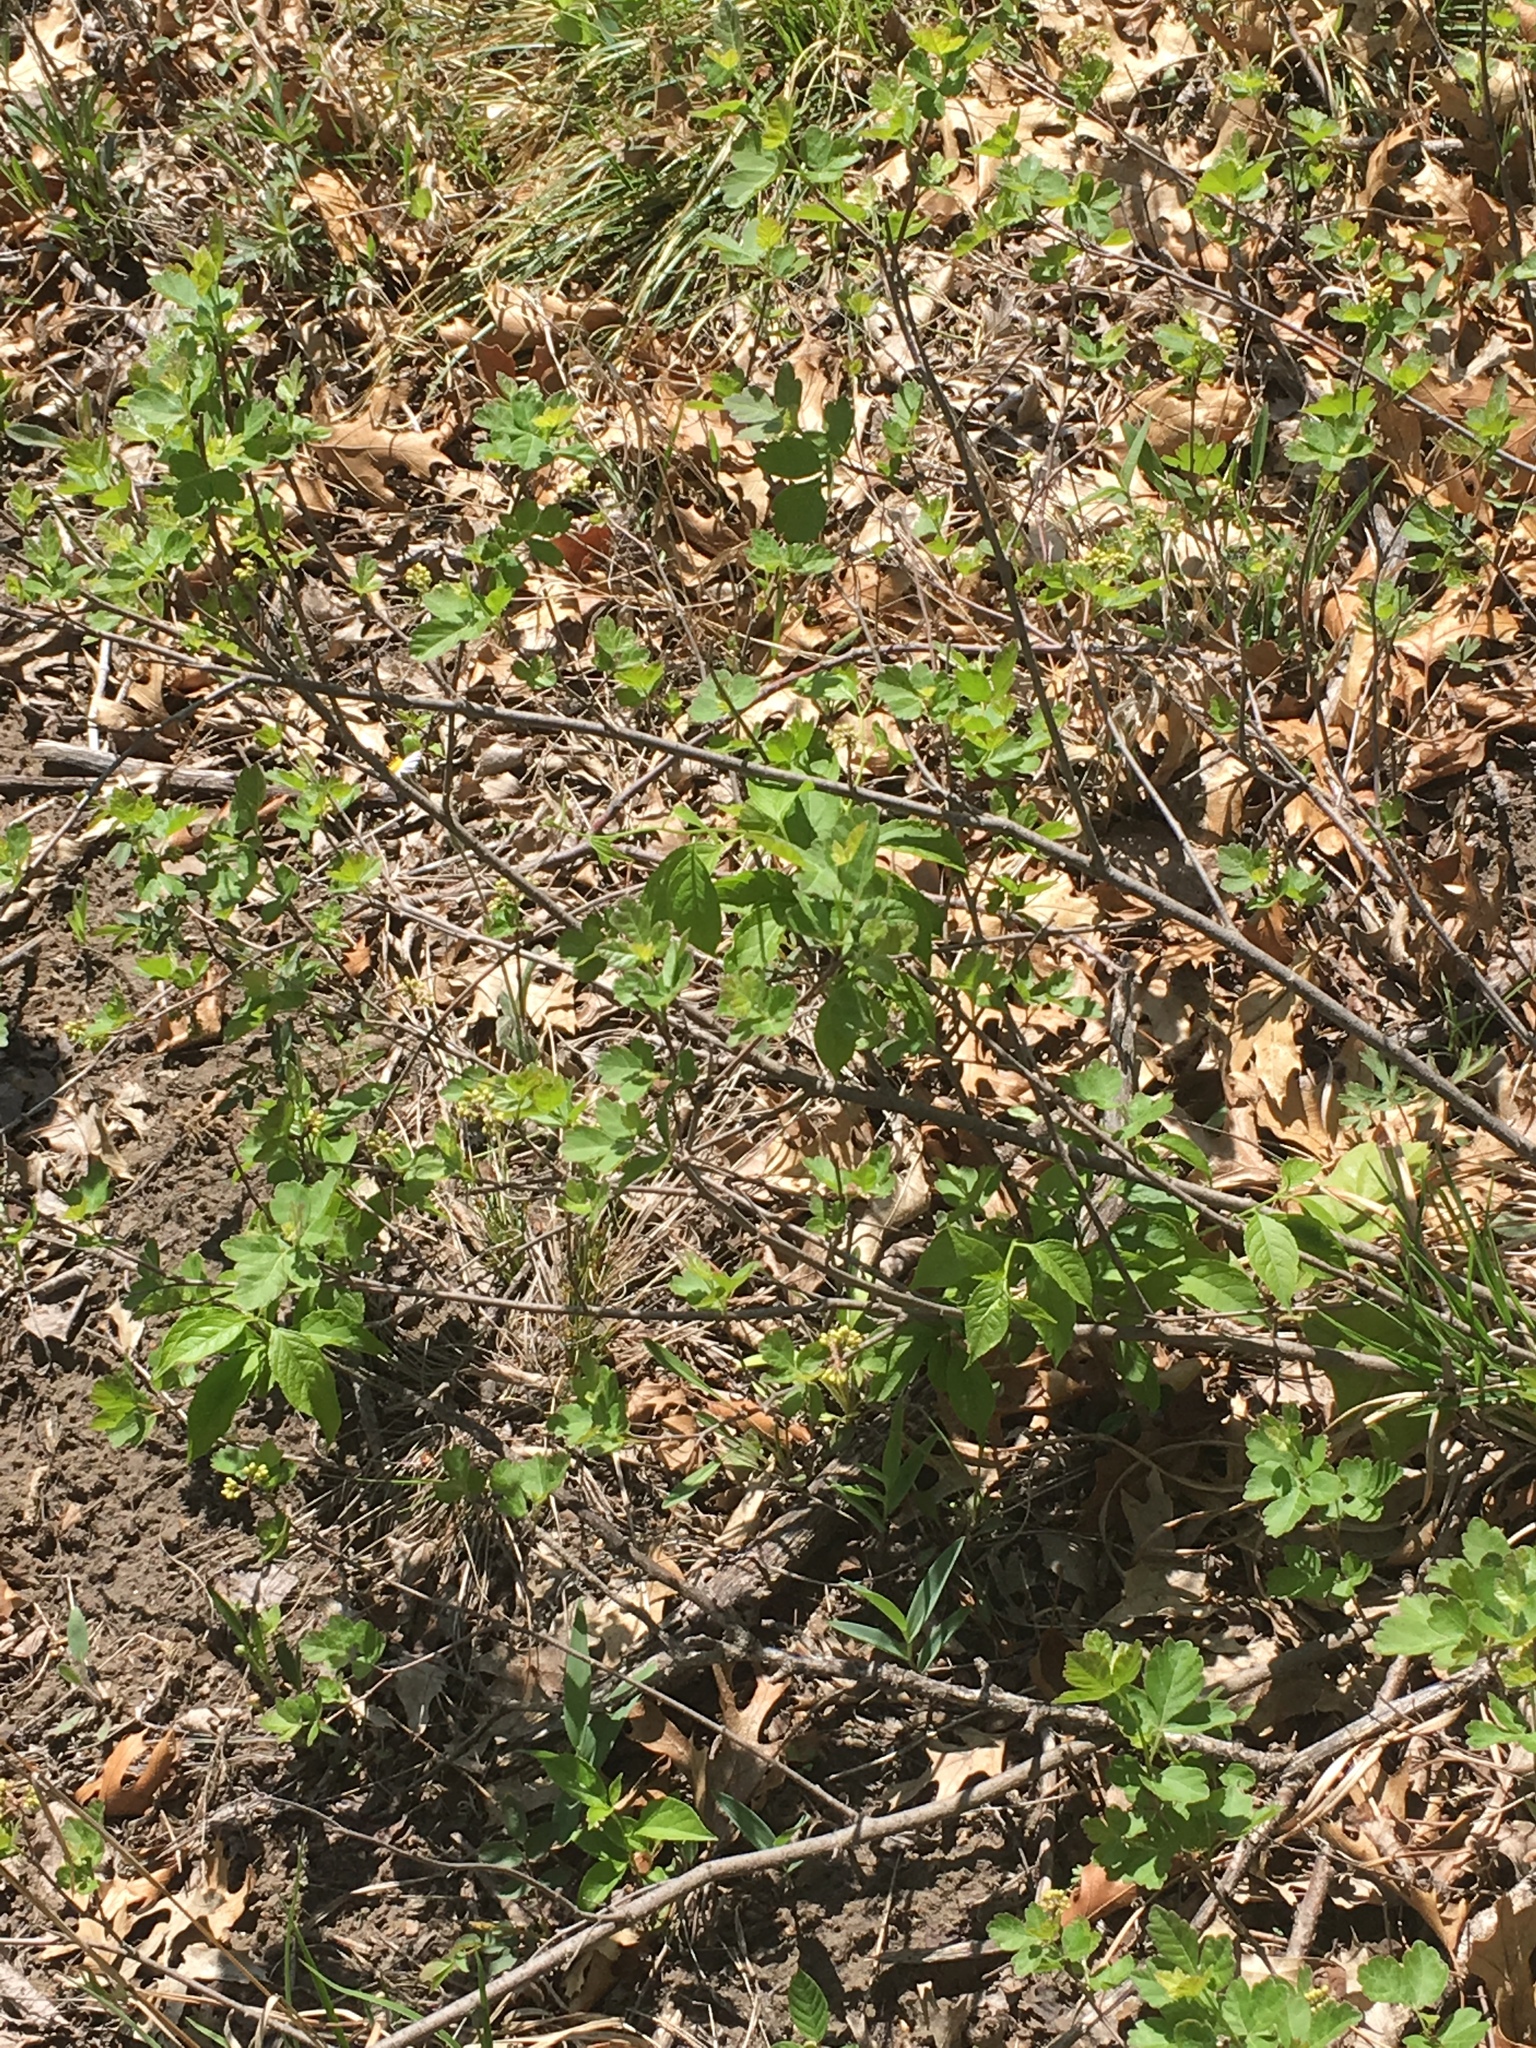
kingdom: Plantae
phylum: Tracheophyta
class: Magnoliopsida
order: Sapindales
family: Anacardiaceae
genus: Rhus
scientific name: Rhus aromatica
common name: Aromatic sumac
